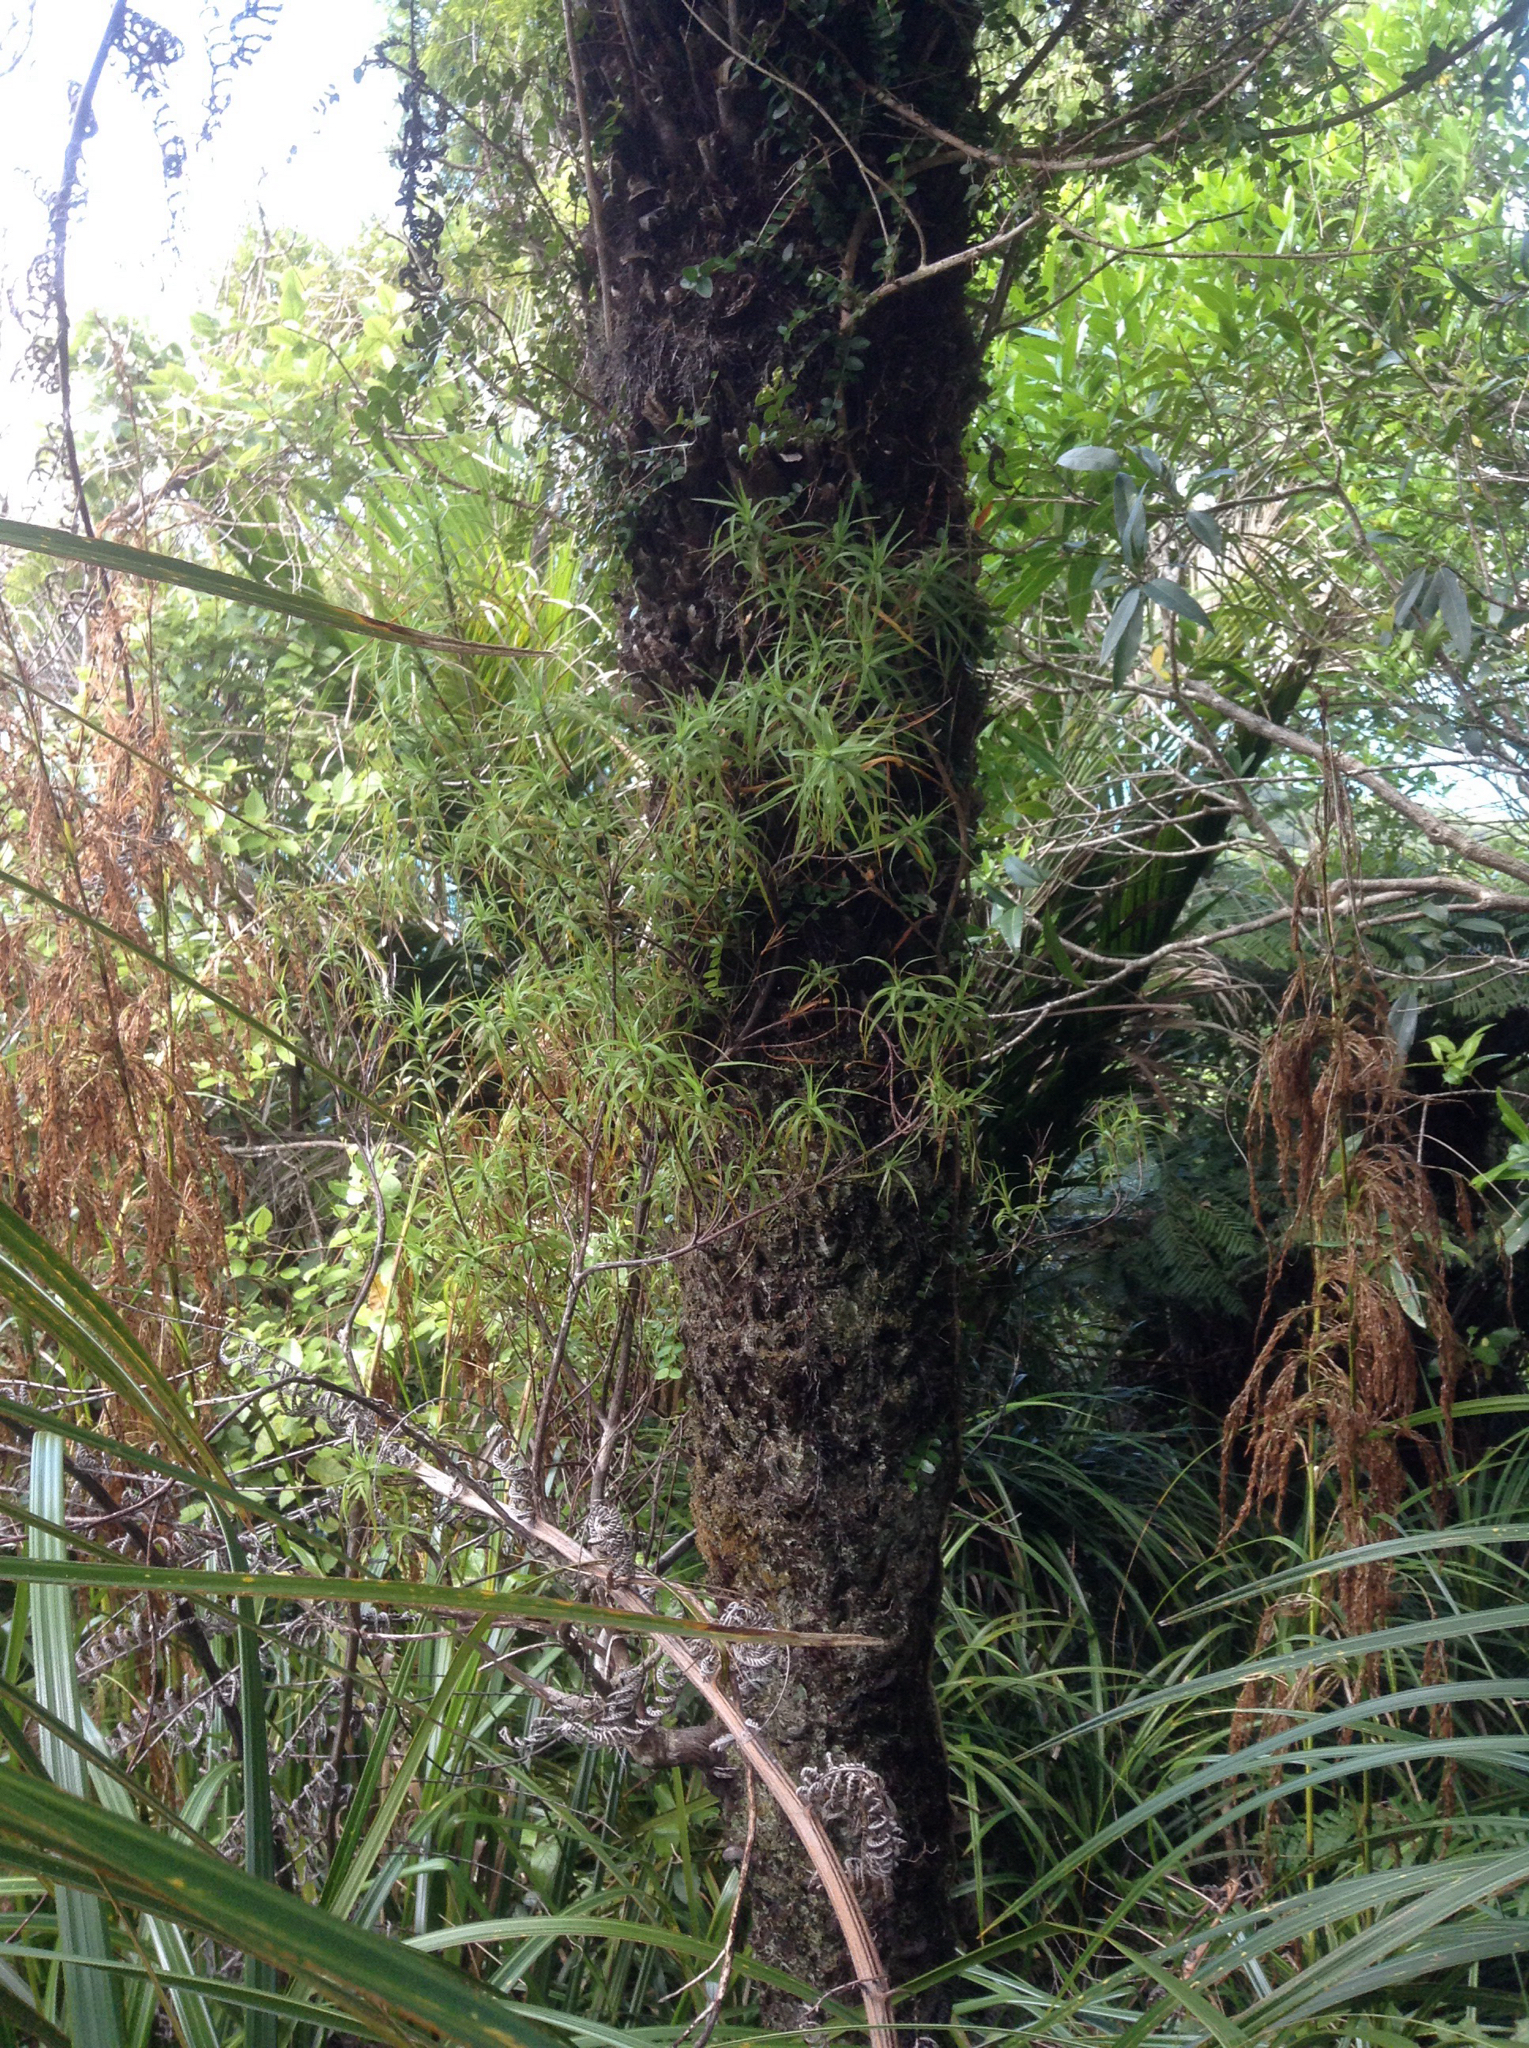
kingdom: Plantae
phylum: Tracheophyta
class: Magnoliopsida
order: Ericales
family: Ericaceae
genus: Dracophyllum
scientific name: Dracophyllum sinclairii
